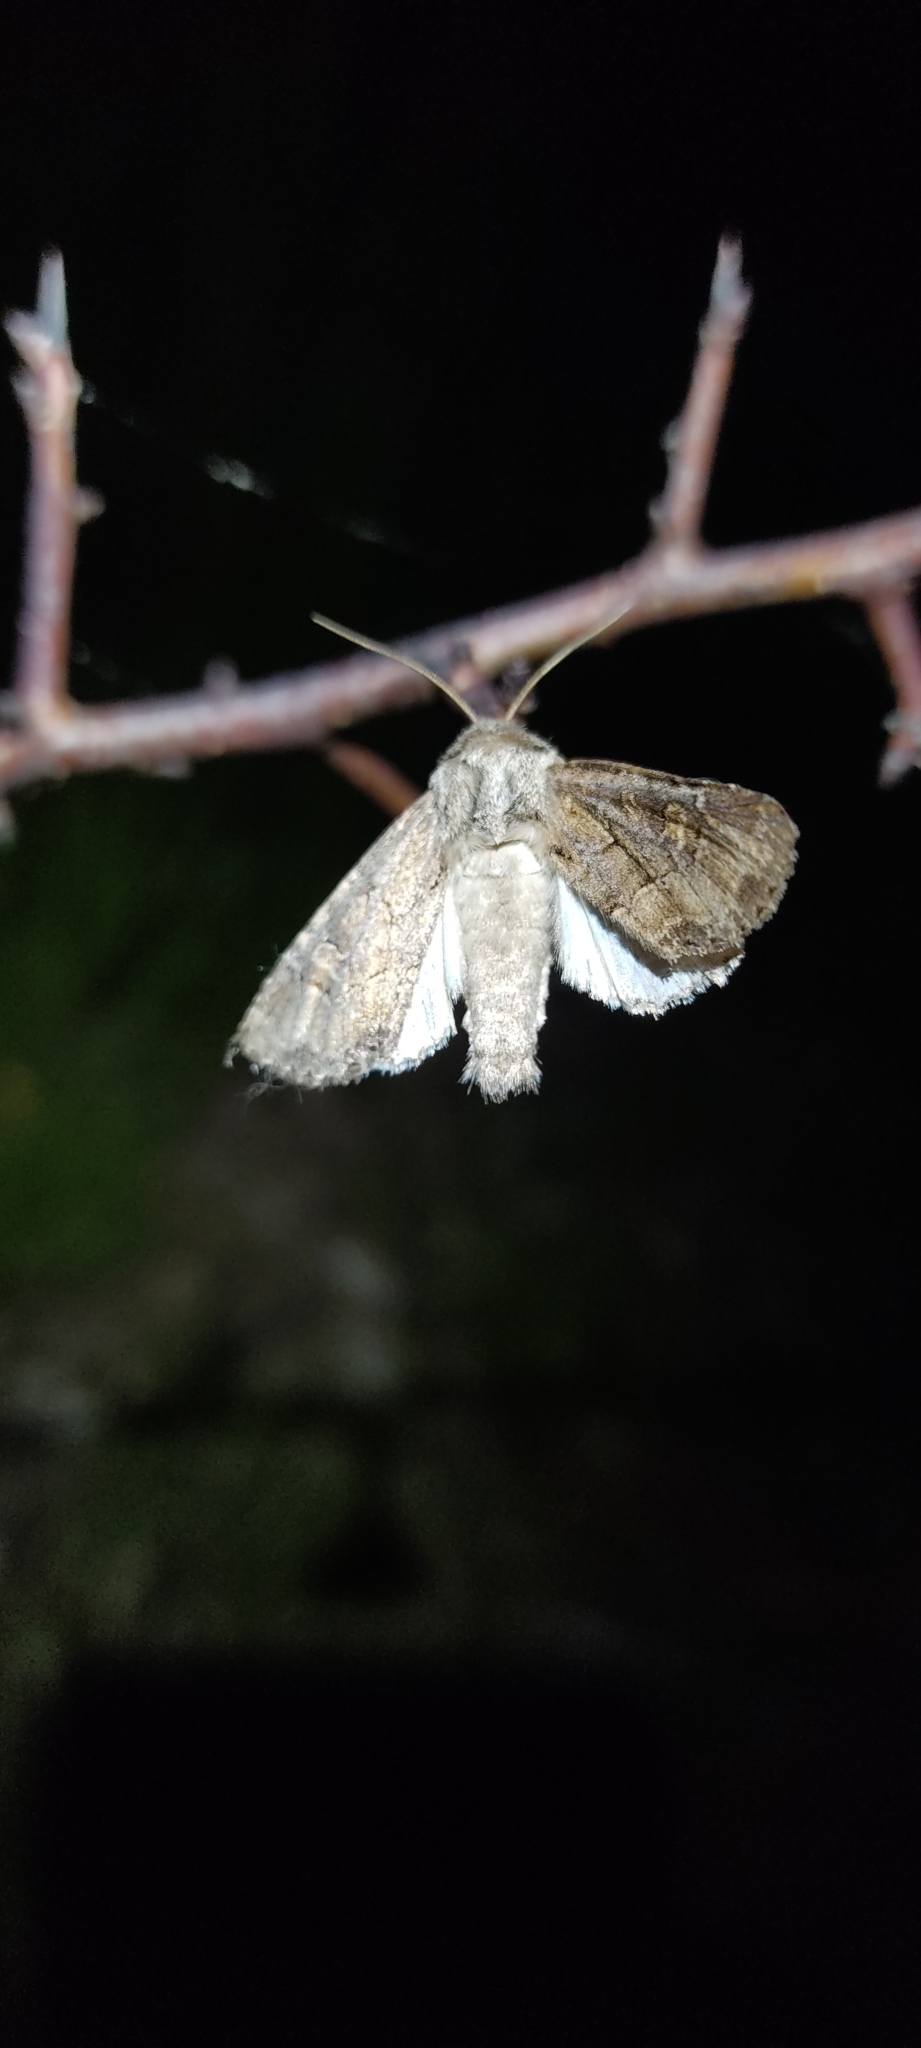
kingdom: Animalia
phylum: Arthropoda
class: Insecta
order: Lepidoptera
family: Noctuidae
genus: Luperina
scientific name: Luperina testacea
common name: Flounced rustic
